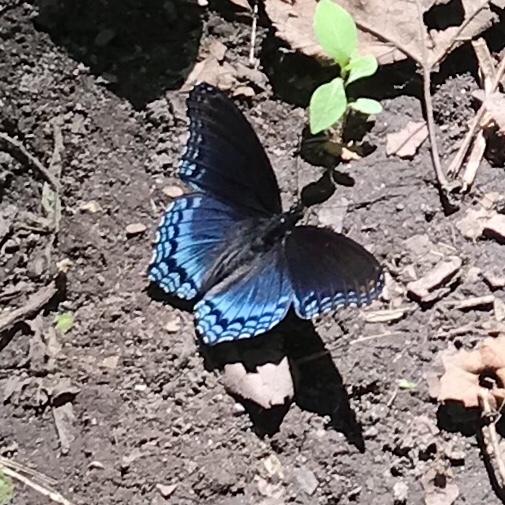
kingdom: Animalia
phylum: Arthropoda
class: Insecta
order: Lepidoptera
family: Nymphalidae
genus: Limenitis
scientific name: Limenitis astyanax
